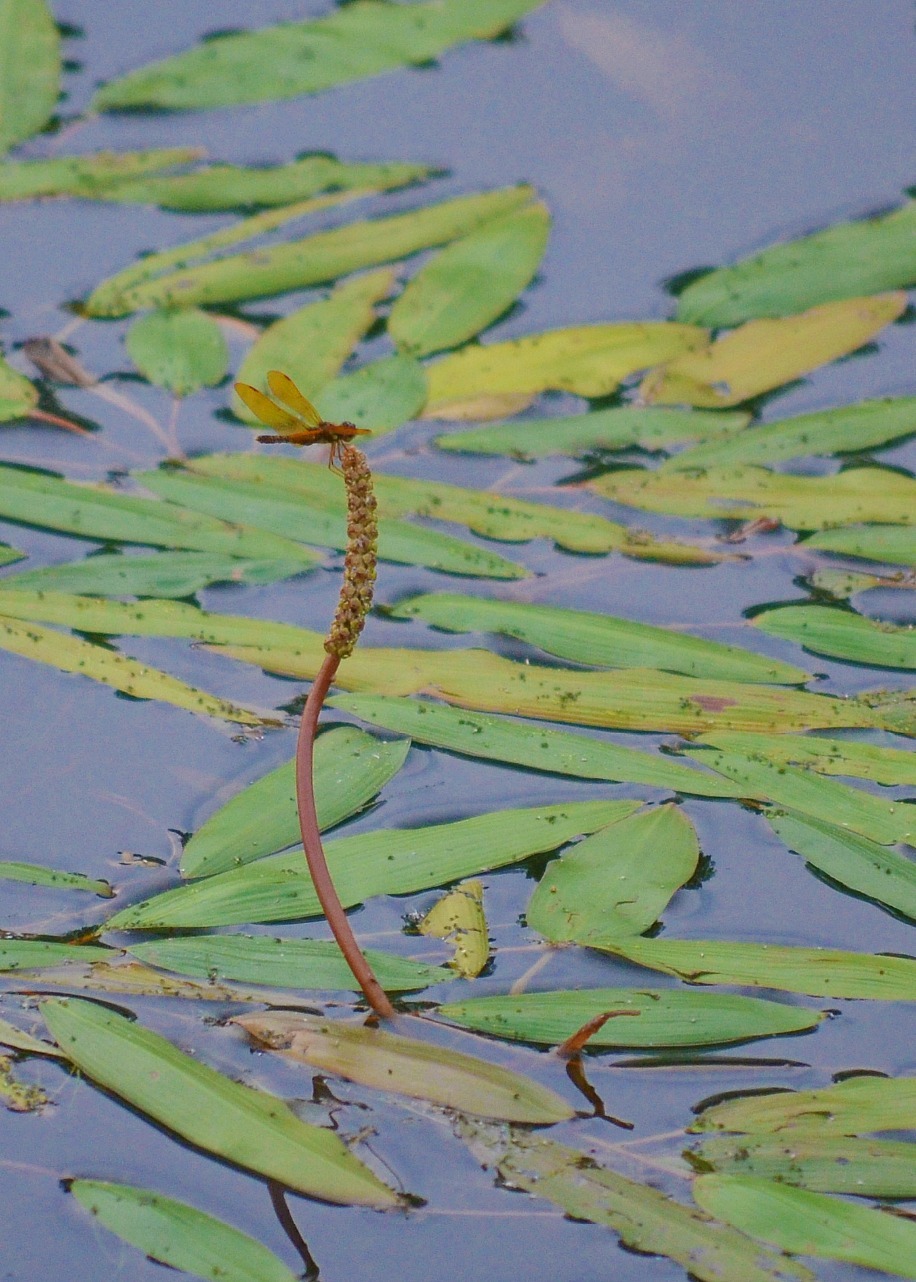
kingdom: Animalia
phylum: Arthropoda
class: Insecta
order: Odonata
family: Libellulidae
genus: Perithemis
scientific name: Perithemis tenera
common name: Eastern amberwing
